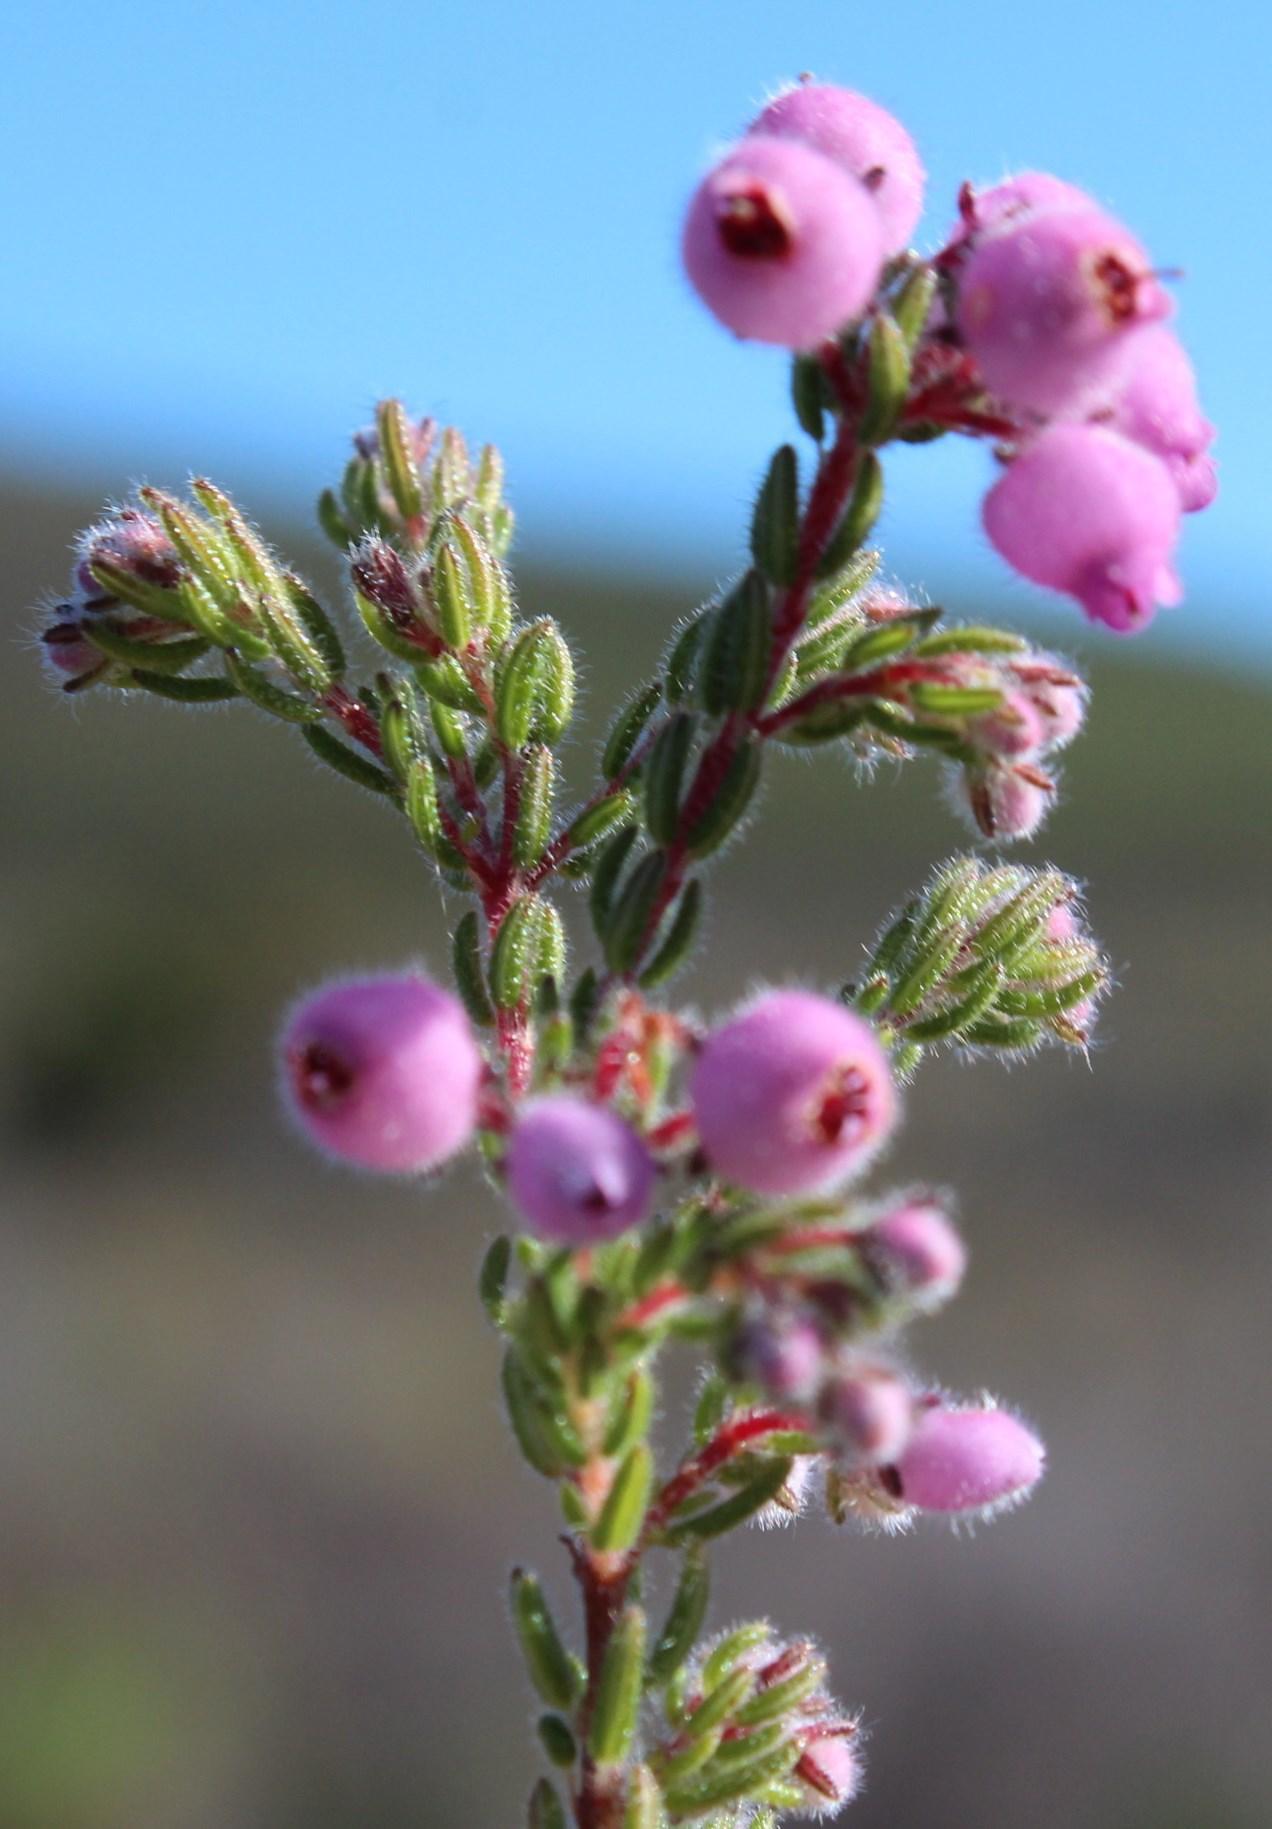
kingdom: Plantae
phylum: Tracheophyta
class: Magnoliopsida
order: Ericales
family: Ericaceae
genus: Erica
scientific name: Erica hirtiflora
